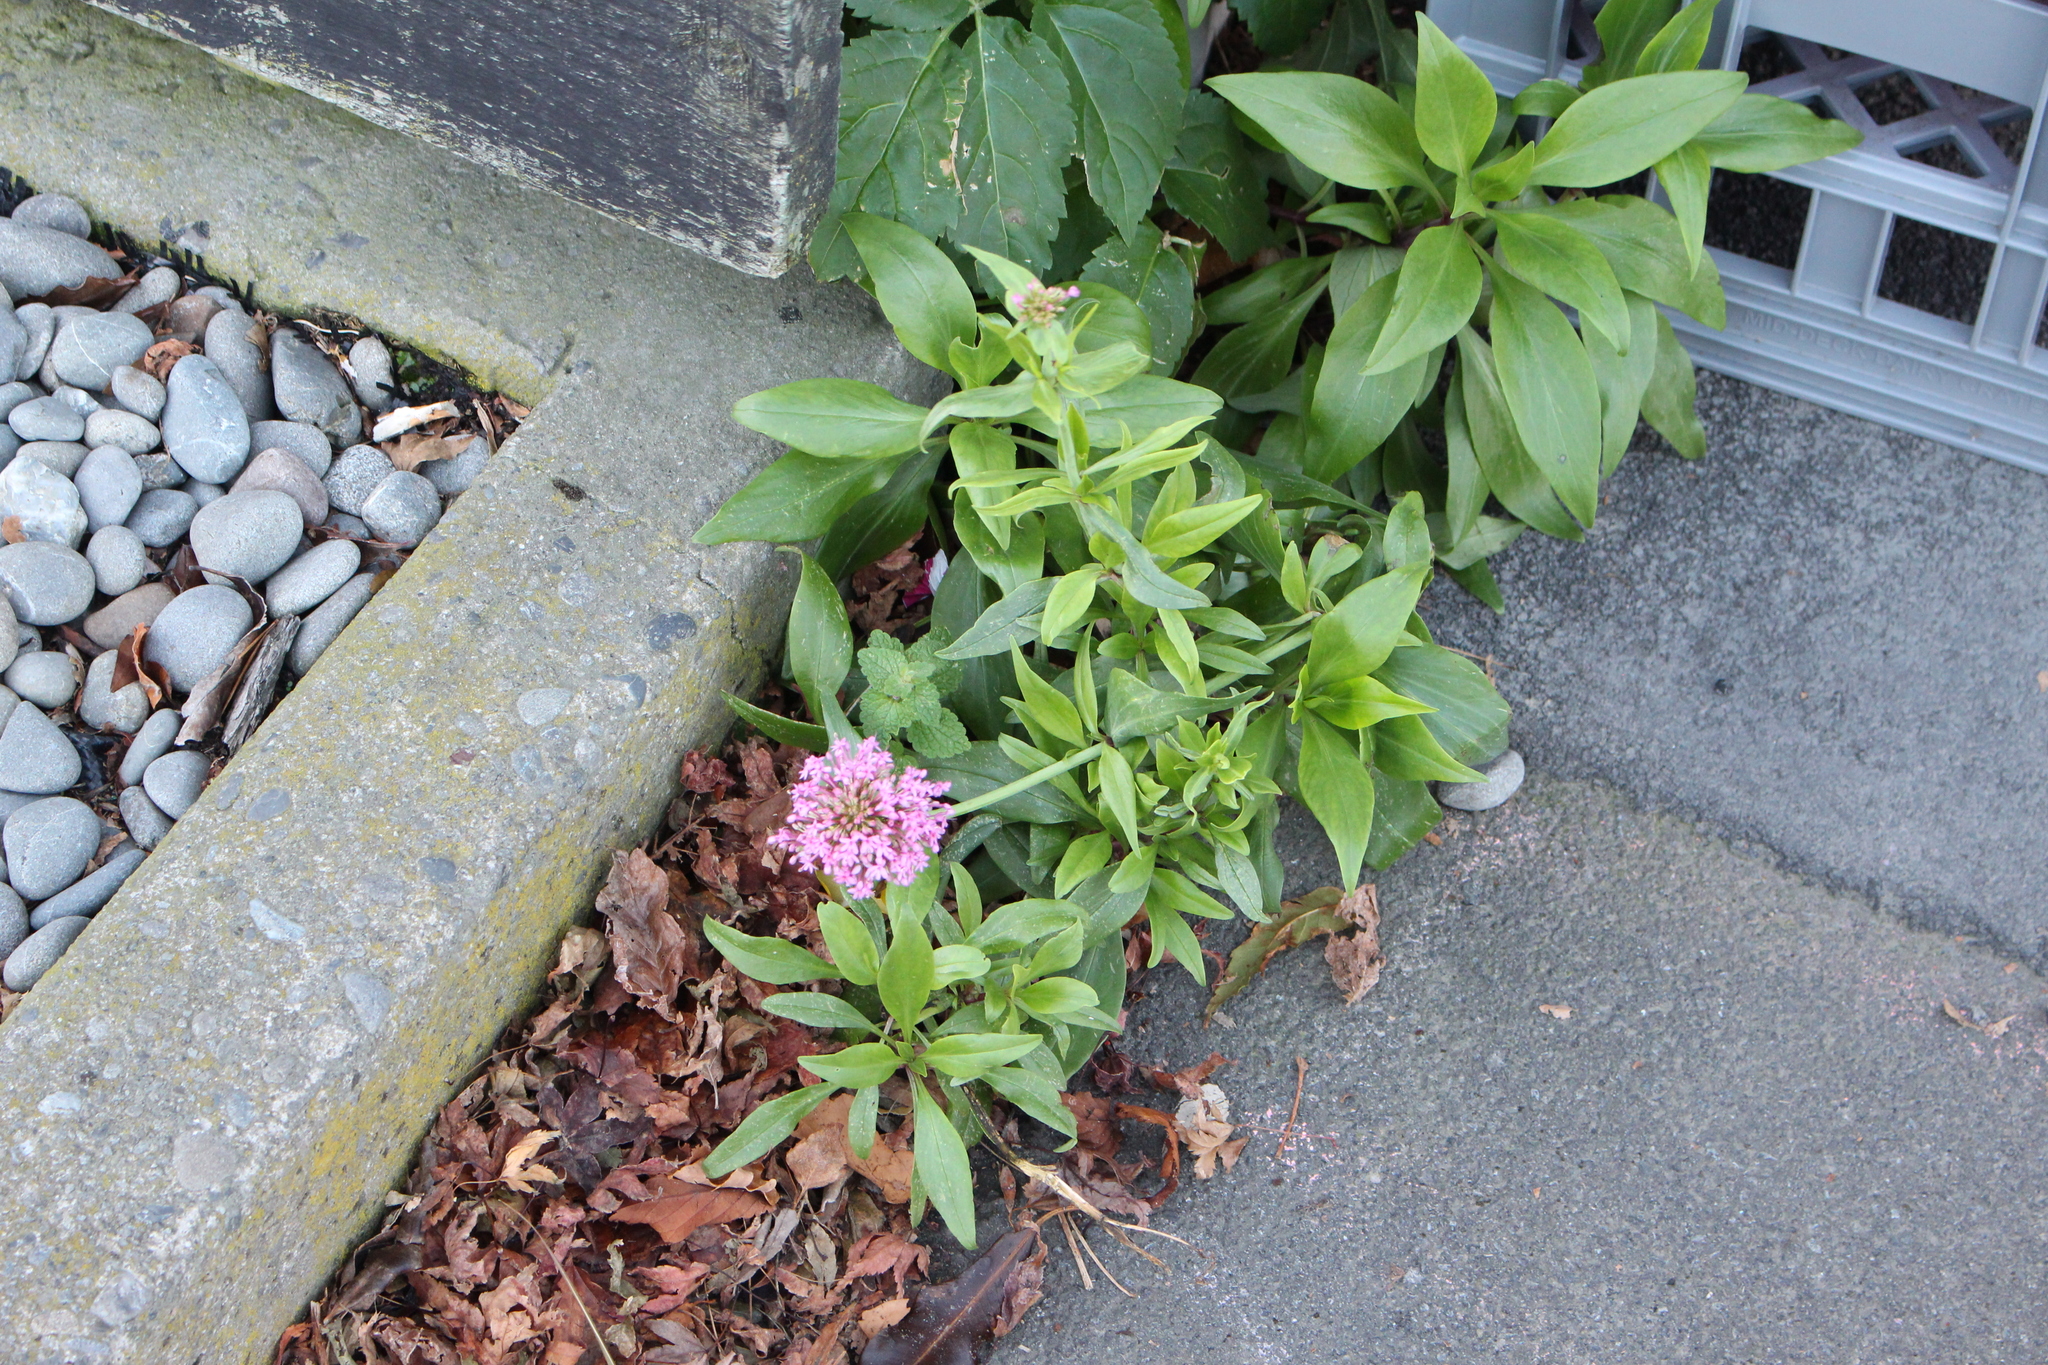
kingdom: Plantae
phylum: Tracheophyta
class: Magnoliopsida
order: Dipsacales
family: Caprifoliaceae
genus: Centranthus
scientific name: Centranthus ruber
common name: Red valerian
